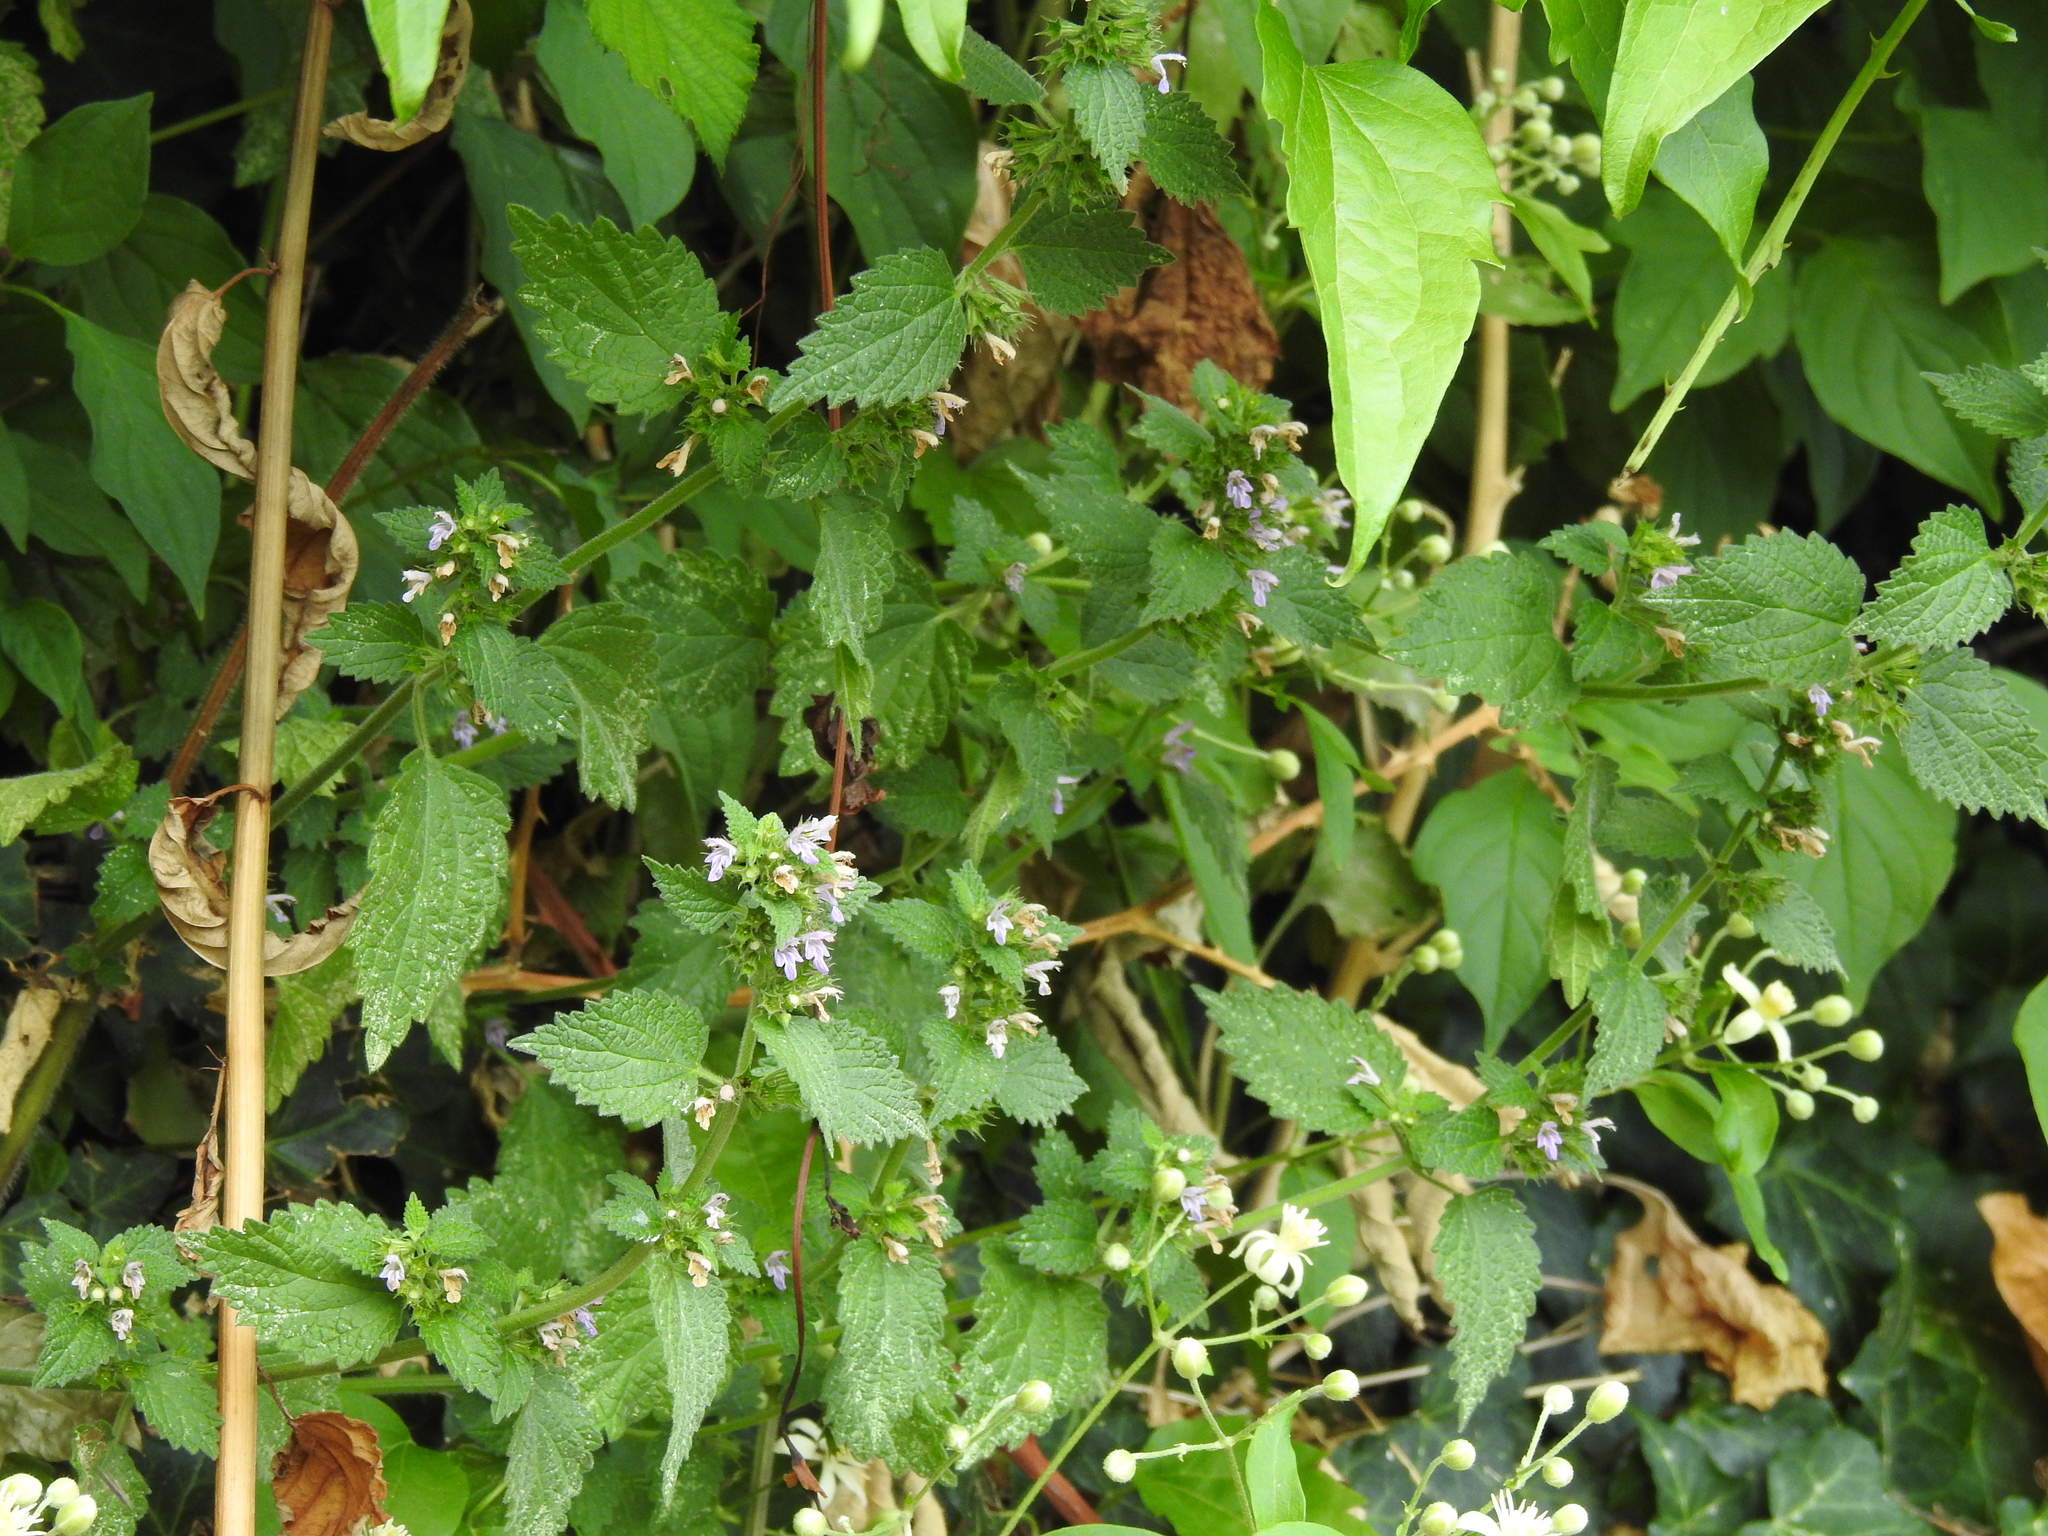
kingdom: Plantae
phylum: Tracheophyta
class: Magnoliopsida
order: Lamiales
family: Lamiaceae
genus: Ballota
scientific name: Ballota nigra
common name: Black horehound
